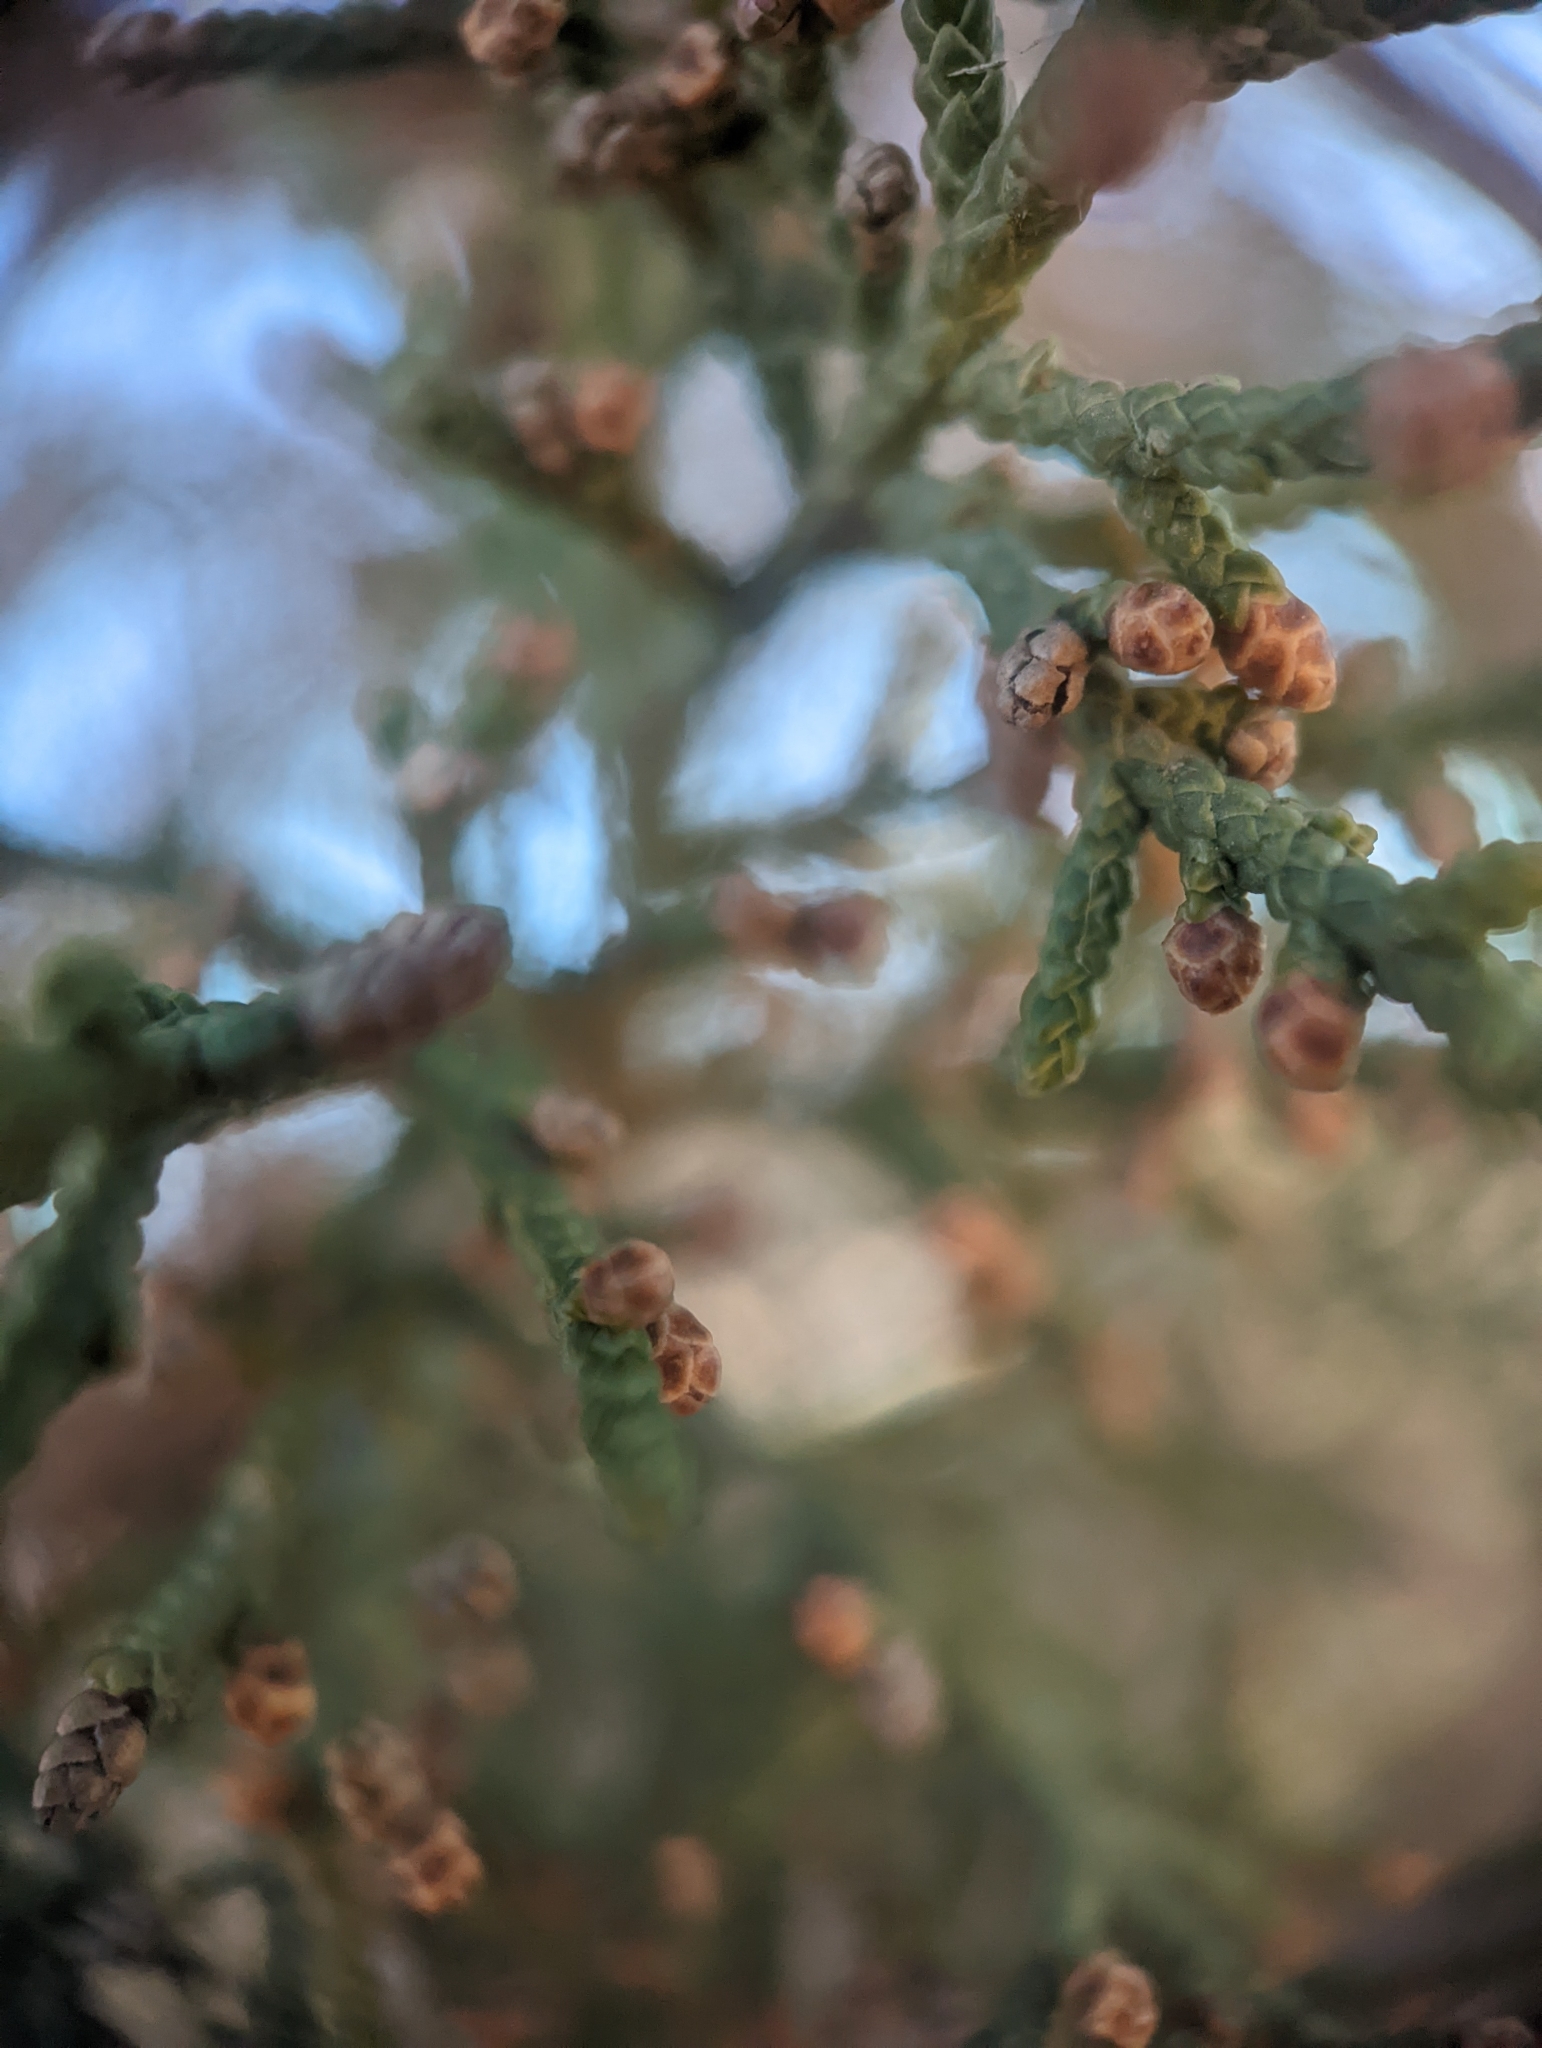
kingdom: Plantae
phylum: Tracheophyta
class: Pinopsida
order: Pinales
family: Cupressaceae
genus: Juniperus
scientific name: Juniperus monosperma
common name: One-seed juniper
